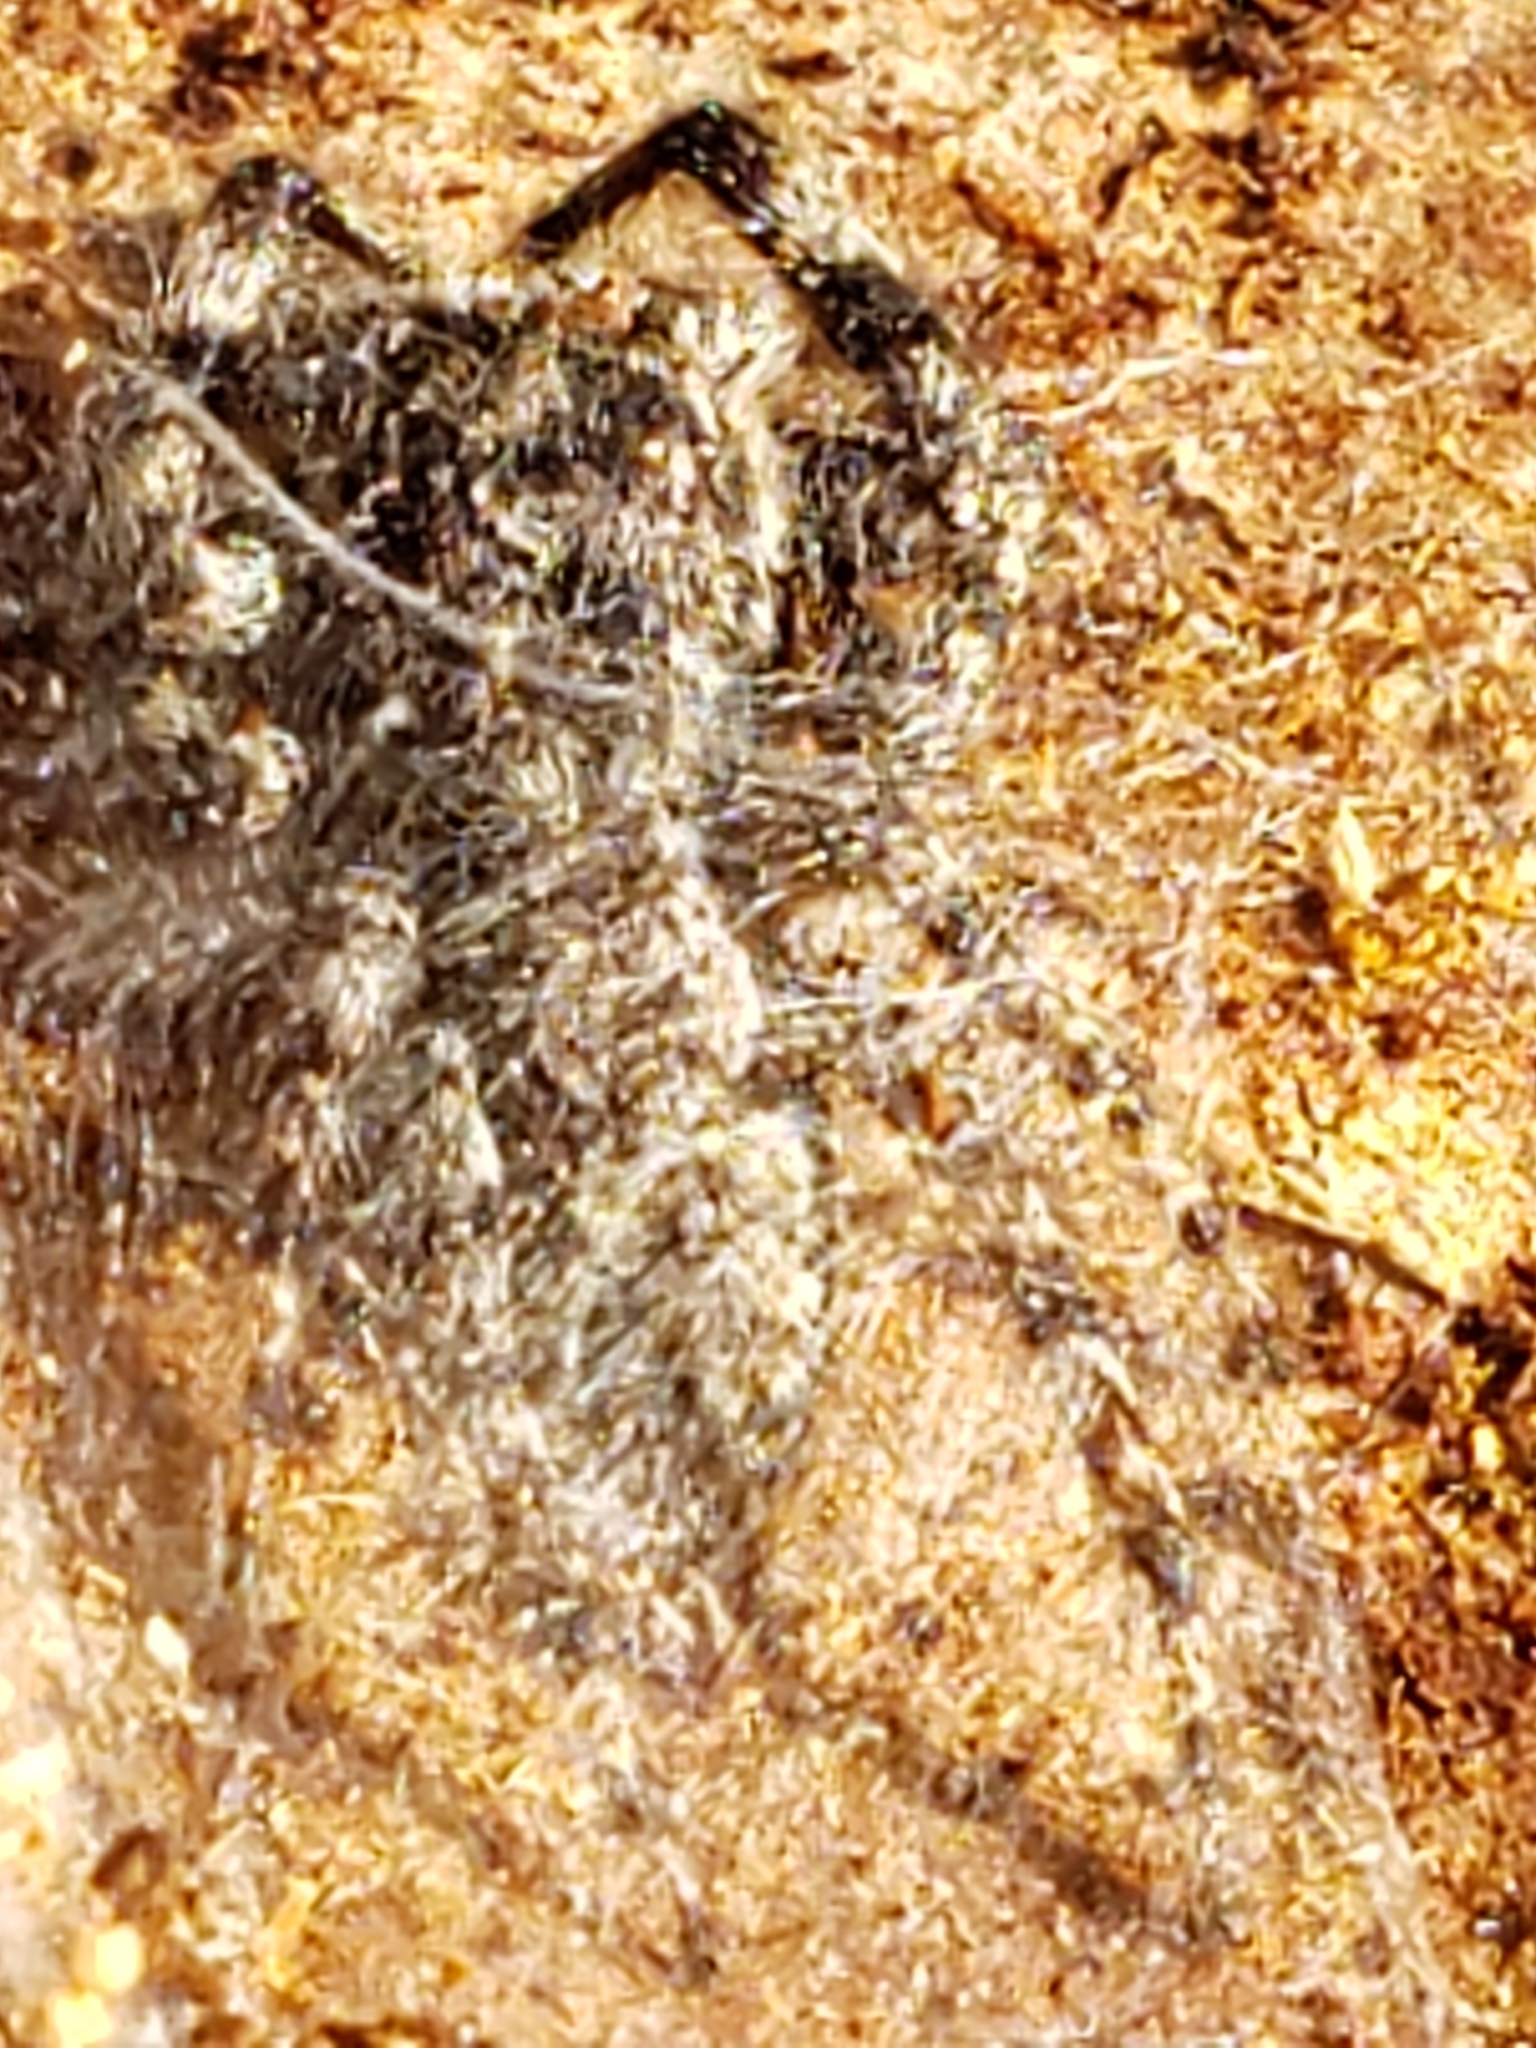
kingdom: Animalia
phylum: Arthropoda
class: Arachnida
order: Araneae
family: Salticidae
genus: Platycryptus
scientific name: Platycryptus undatus
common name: Tan jumping spider
